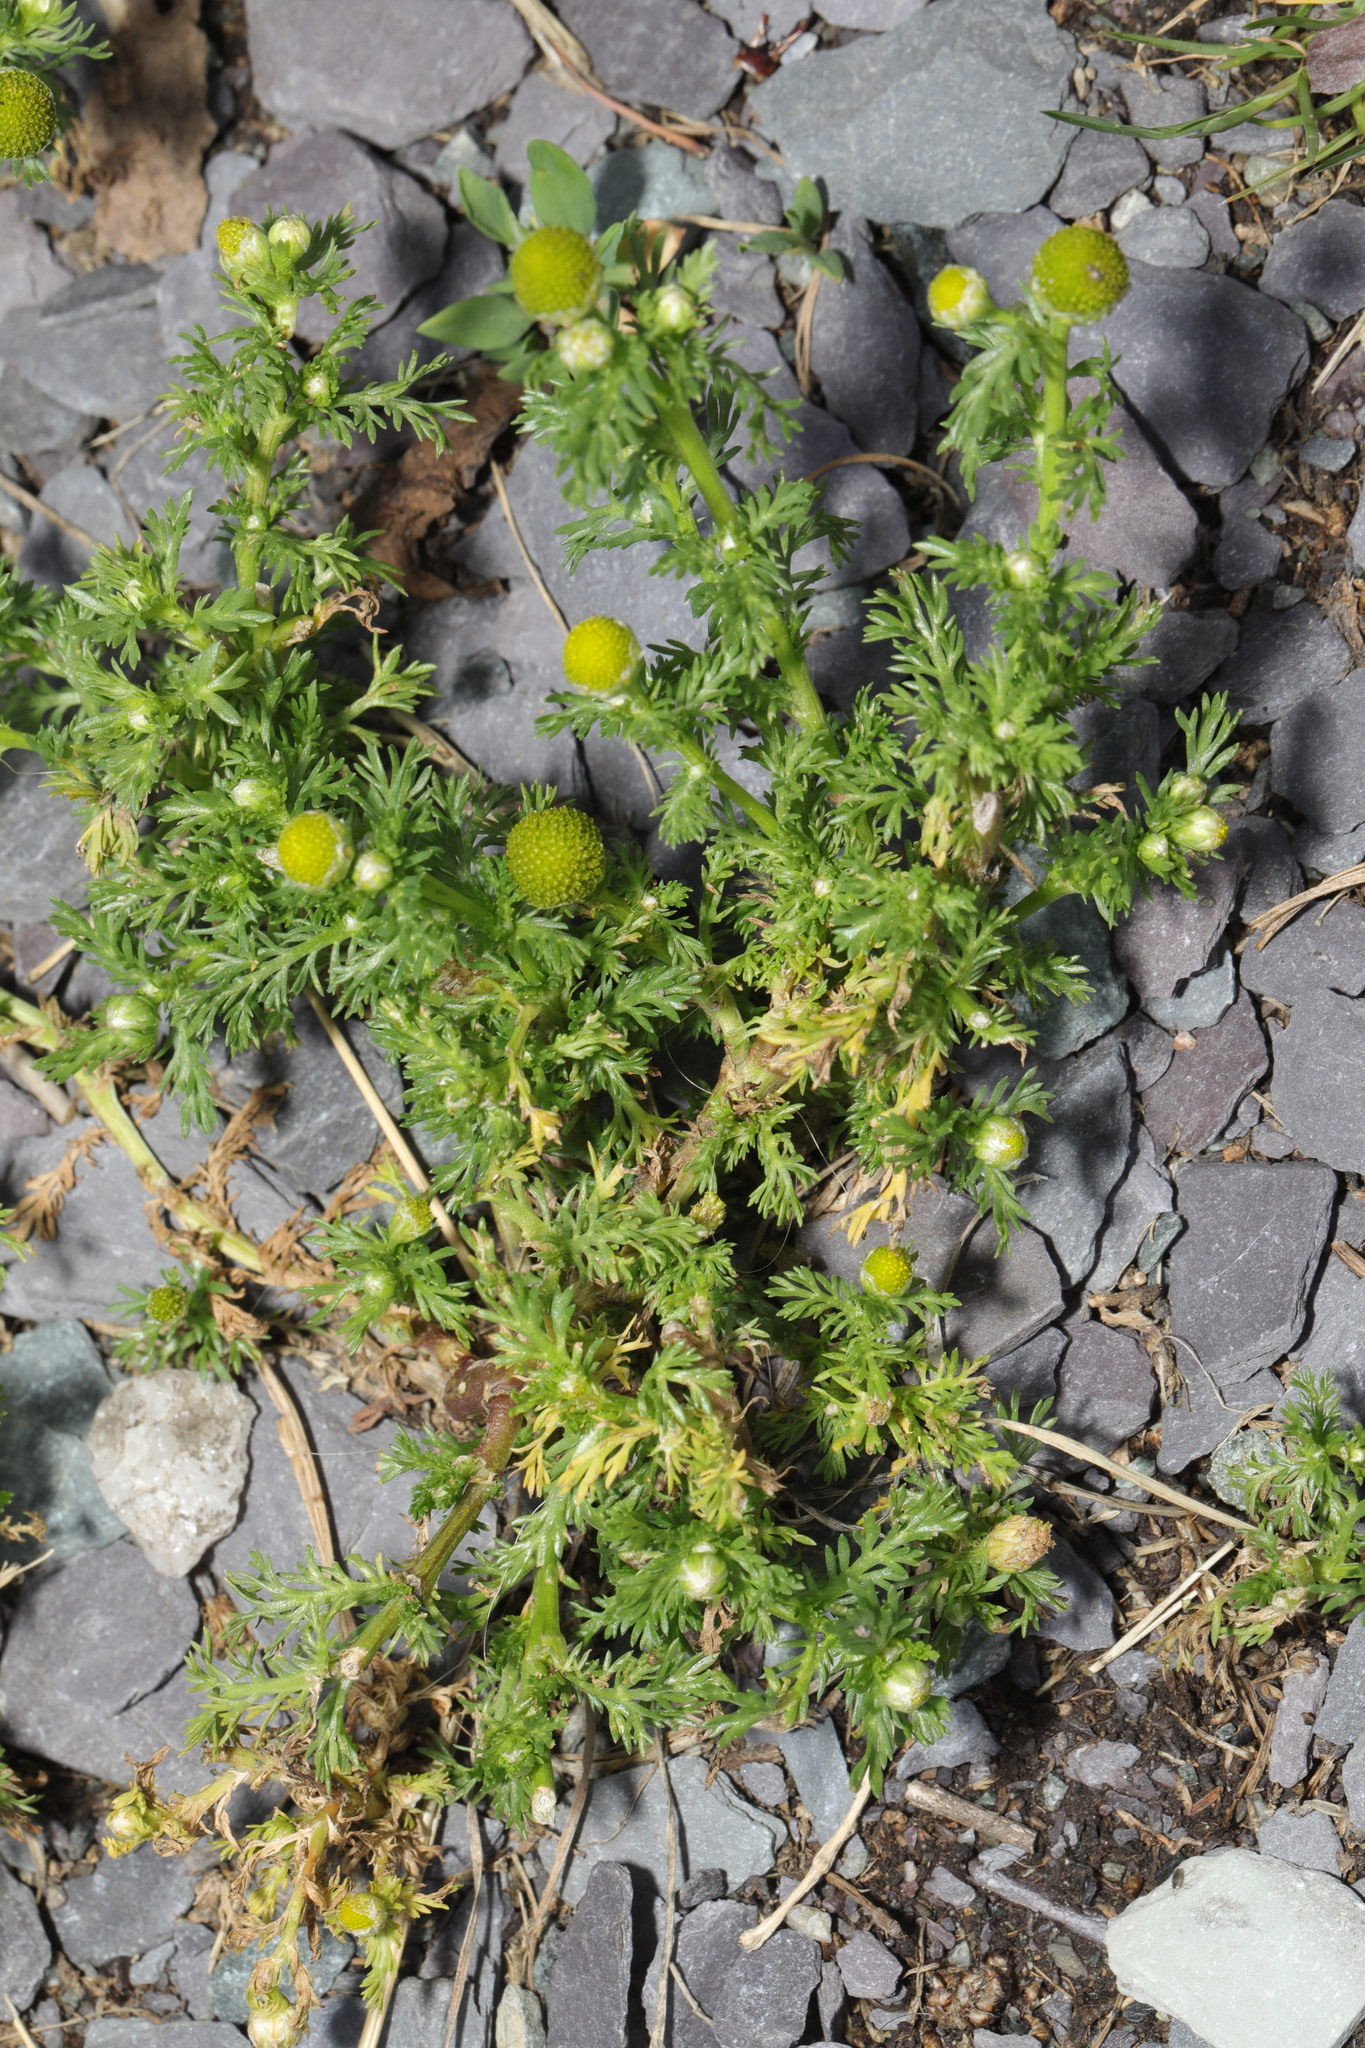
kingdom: Plantae
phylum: Tracheophyta
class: Magnoliopsida
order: Asterales
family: Asteraceae
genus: Matricaria
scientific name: Matricaria discoidea
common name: Disc mayweed
